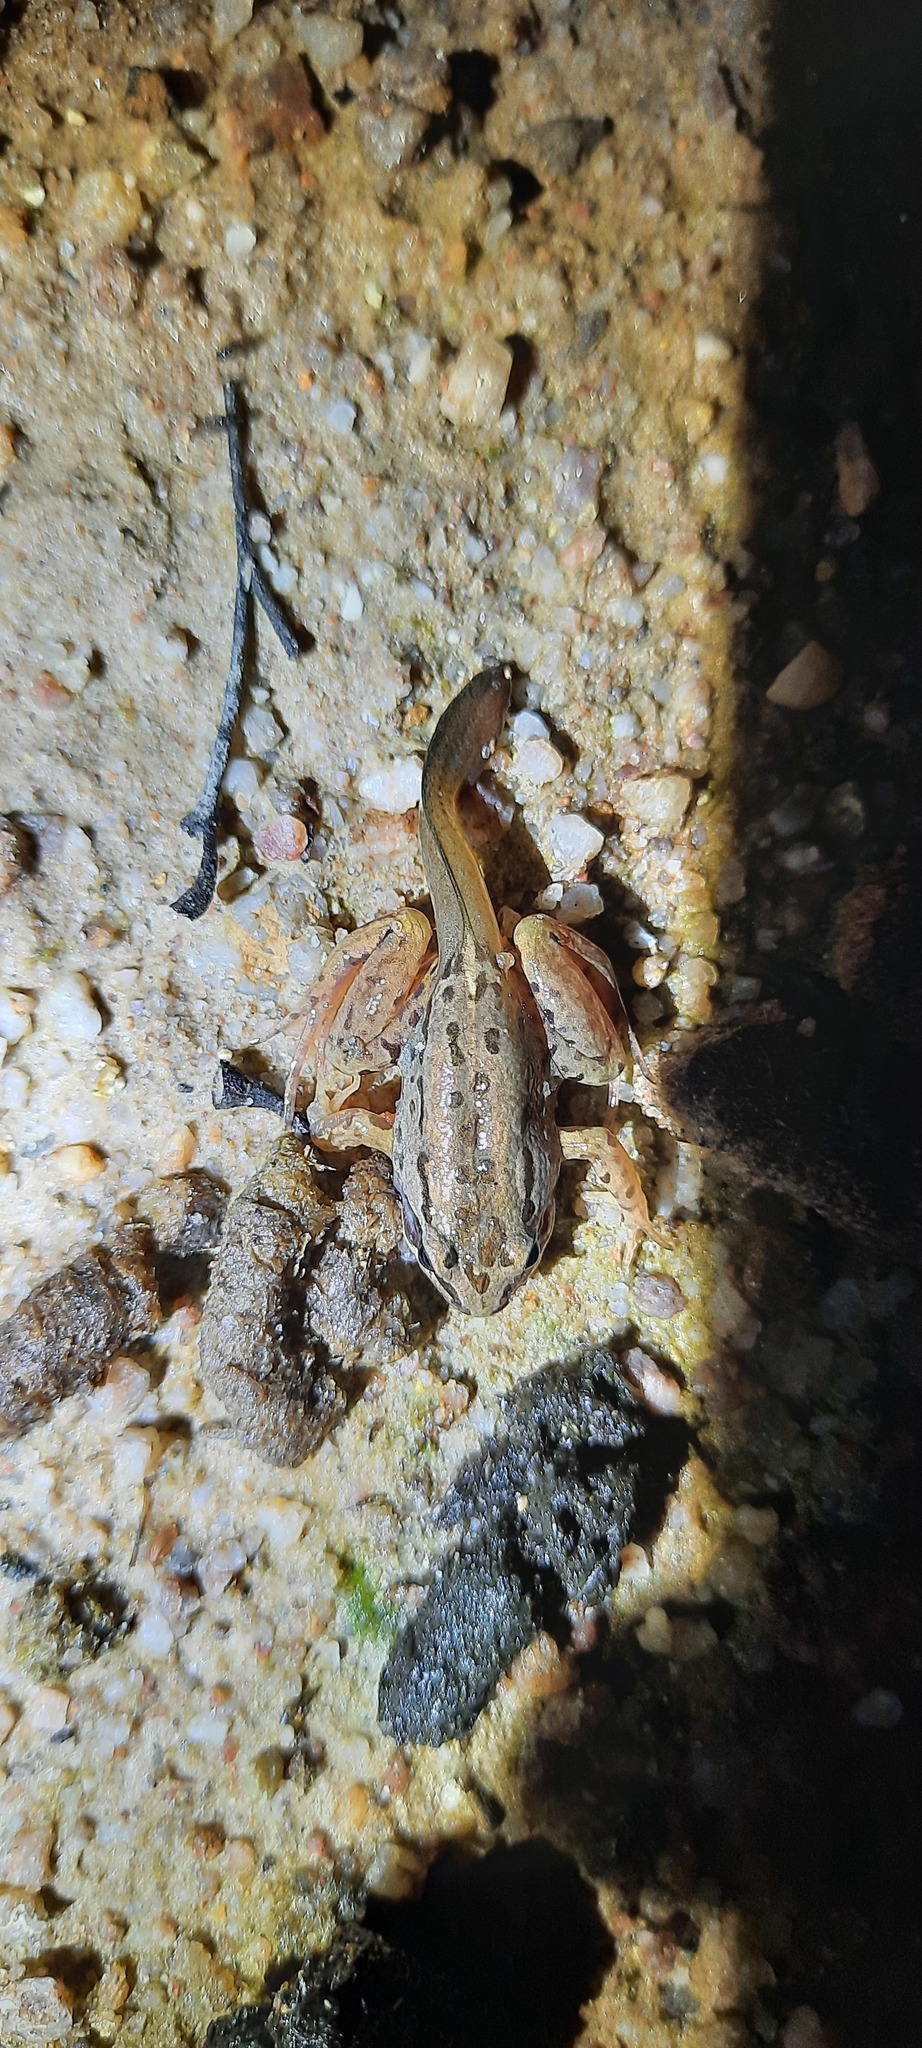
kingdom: Animalia
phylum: Chordata
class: Amphibia
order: Anura
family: Limnodynastidae
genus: Limnodynastes
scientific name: Limnodynastes peronii
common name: Brown frog
